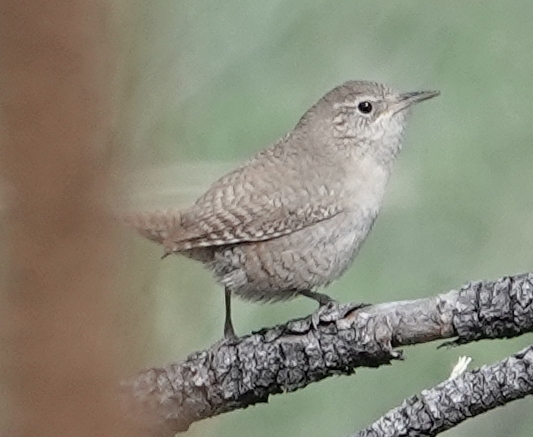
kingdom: Animalia
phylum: Chordata
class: Aves
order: Passeriformes
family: Troglodytidae
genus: Troglodytes
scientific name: Troglodytes aedon
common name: House wren
